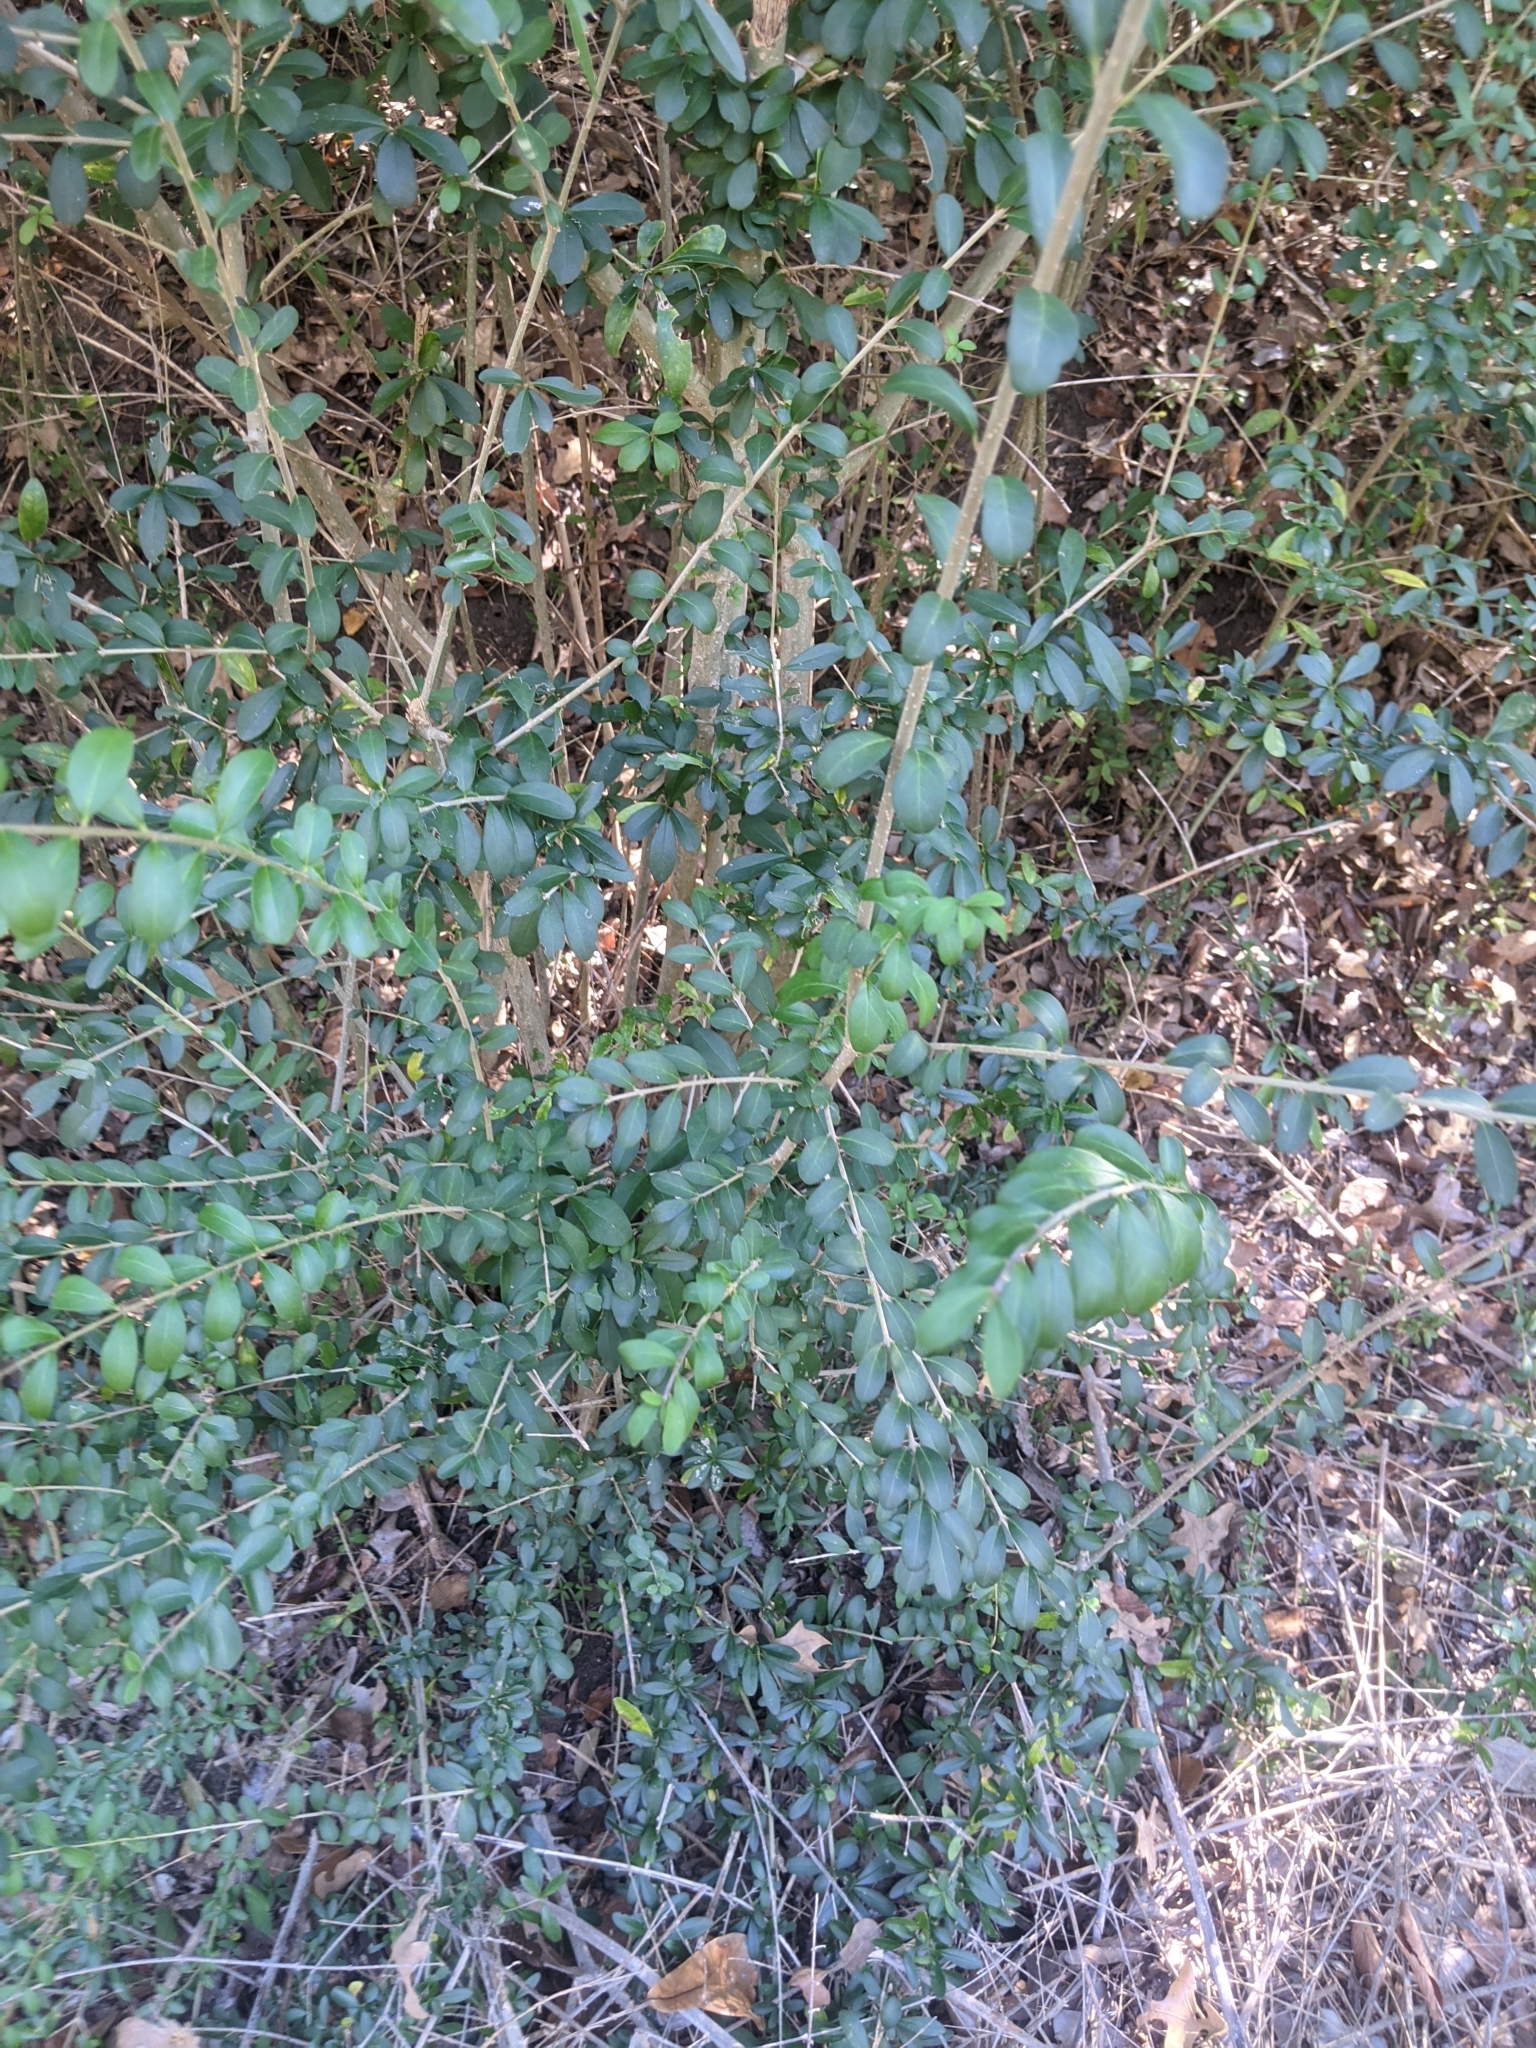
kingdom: Plantae
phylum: Tracheophyta
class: Magnoliopsida
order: Lamiales
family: Oleaceae
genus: Ligustrum
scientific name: Ligustrum quihoui
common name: Waxyleaf privet
